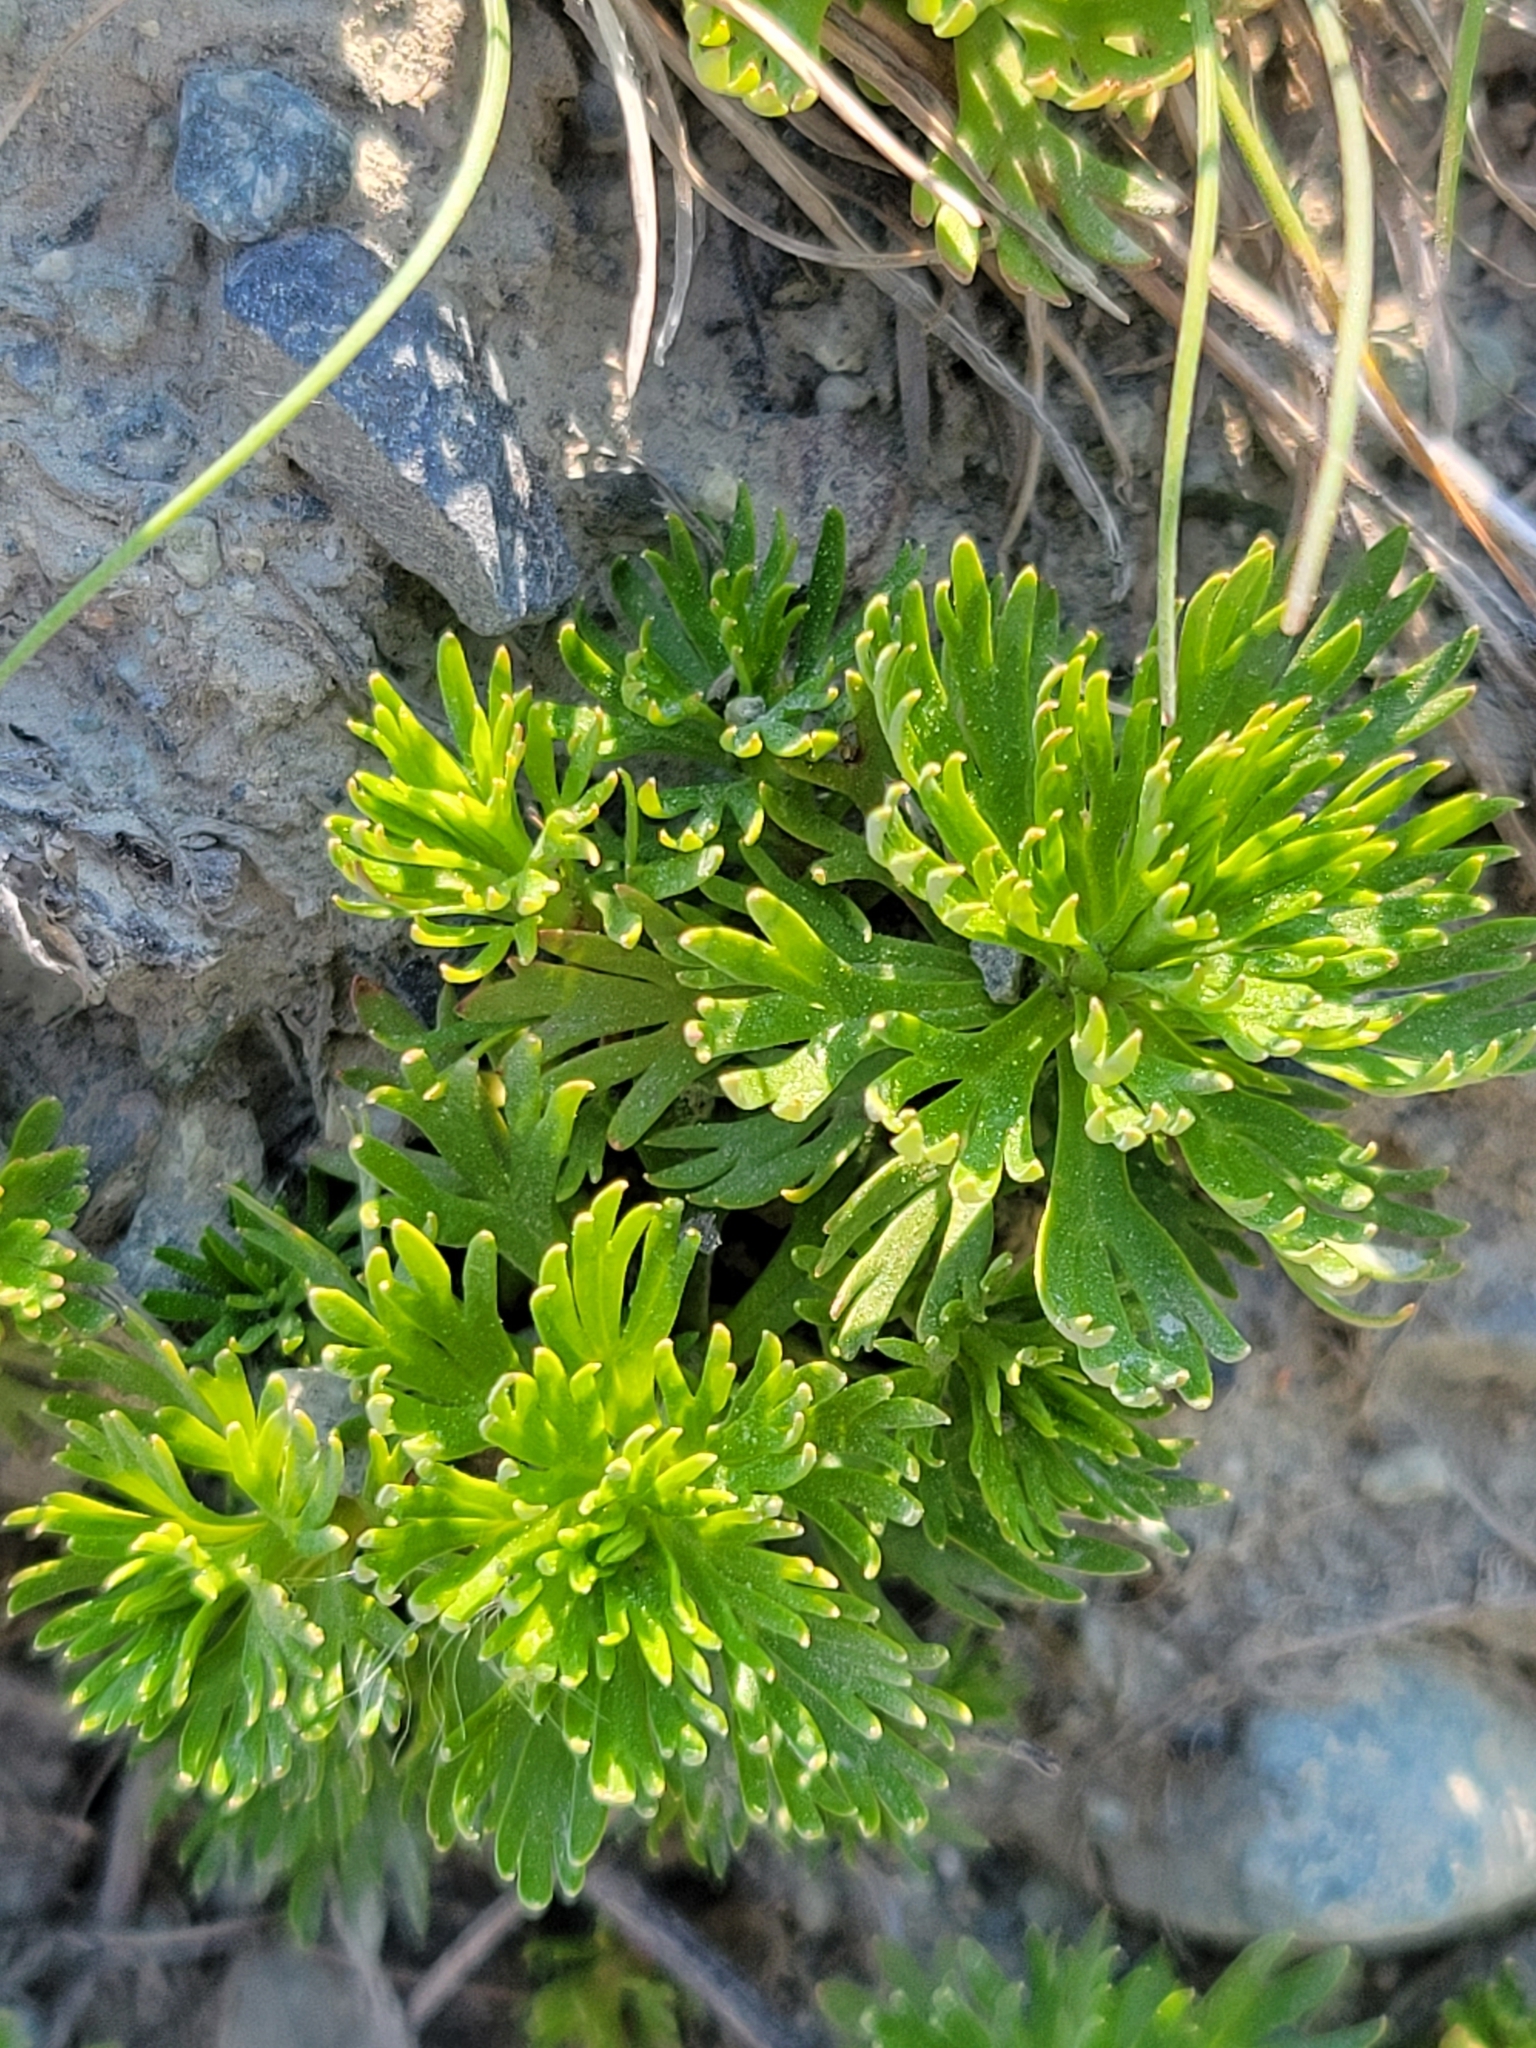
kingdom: Plantae
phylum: Tracheophyta
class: Magnoliopsida
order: Rosales
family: Rosaceae
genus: Luetkea
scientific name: Luetkea pectinata
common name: Partridgefoot
